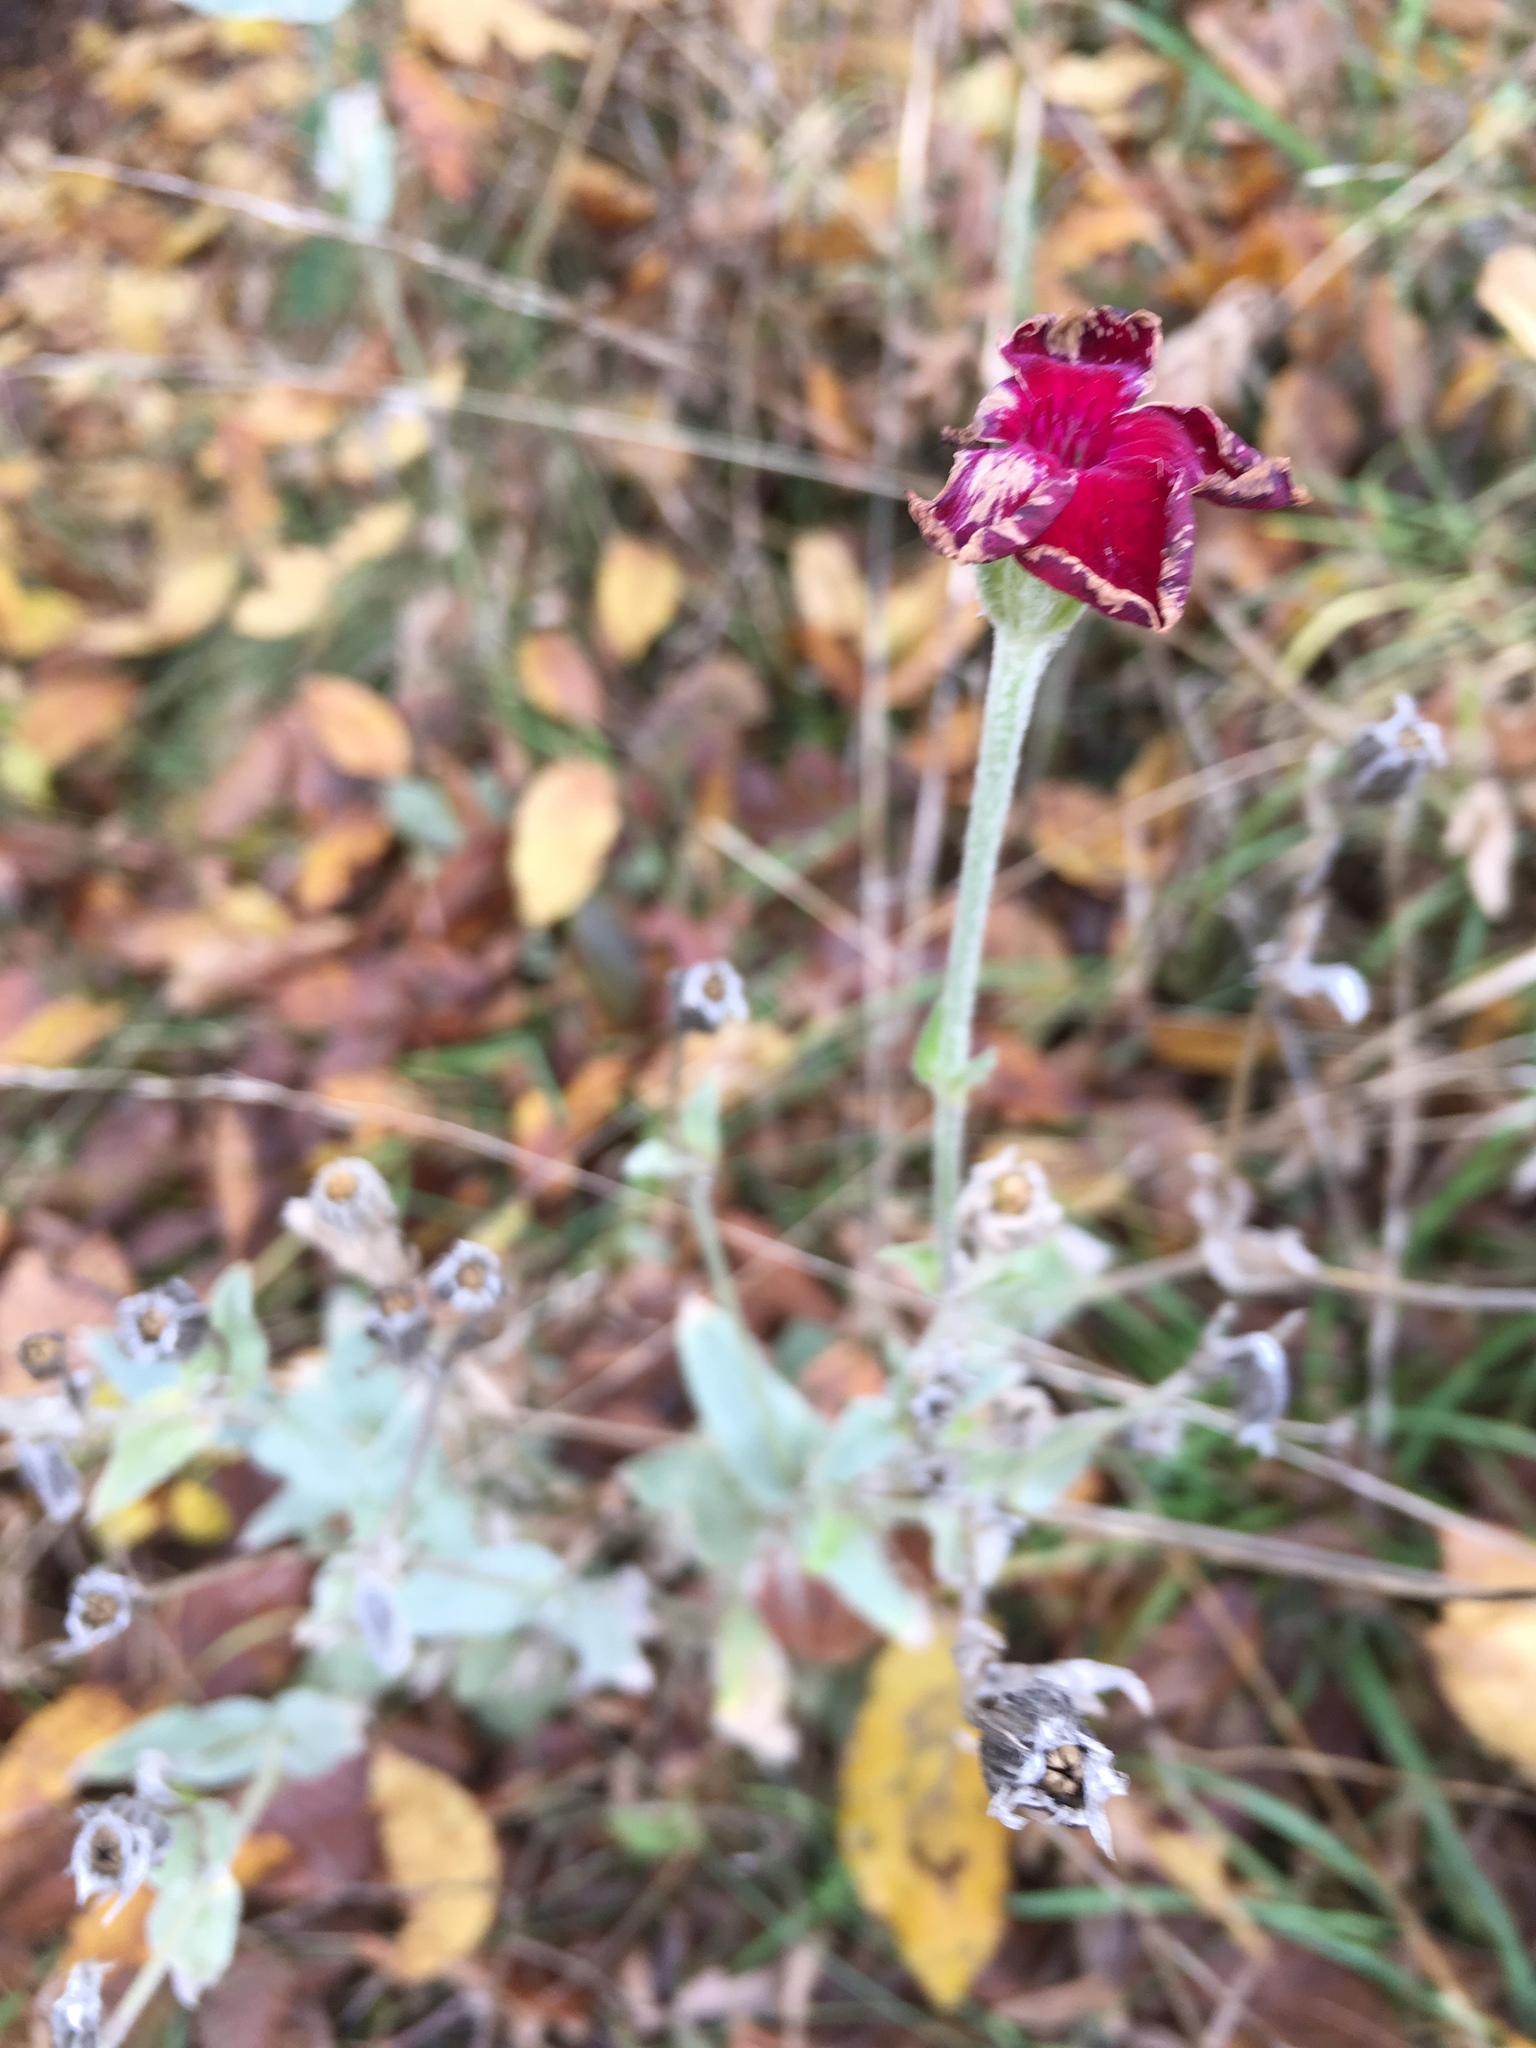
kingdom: Plantae
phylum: Tracheophyta
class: Magnoliopsida
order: Caryophyllales
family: Caryophyllaceae
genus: Silene
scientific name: Silene coronaria
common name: Rose campion
